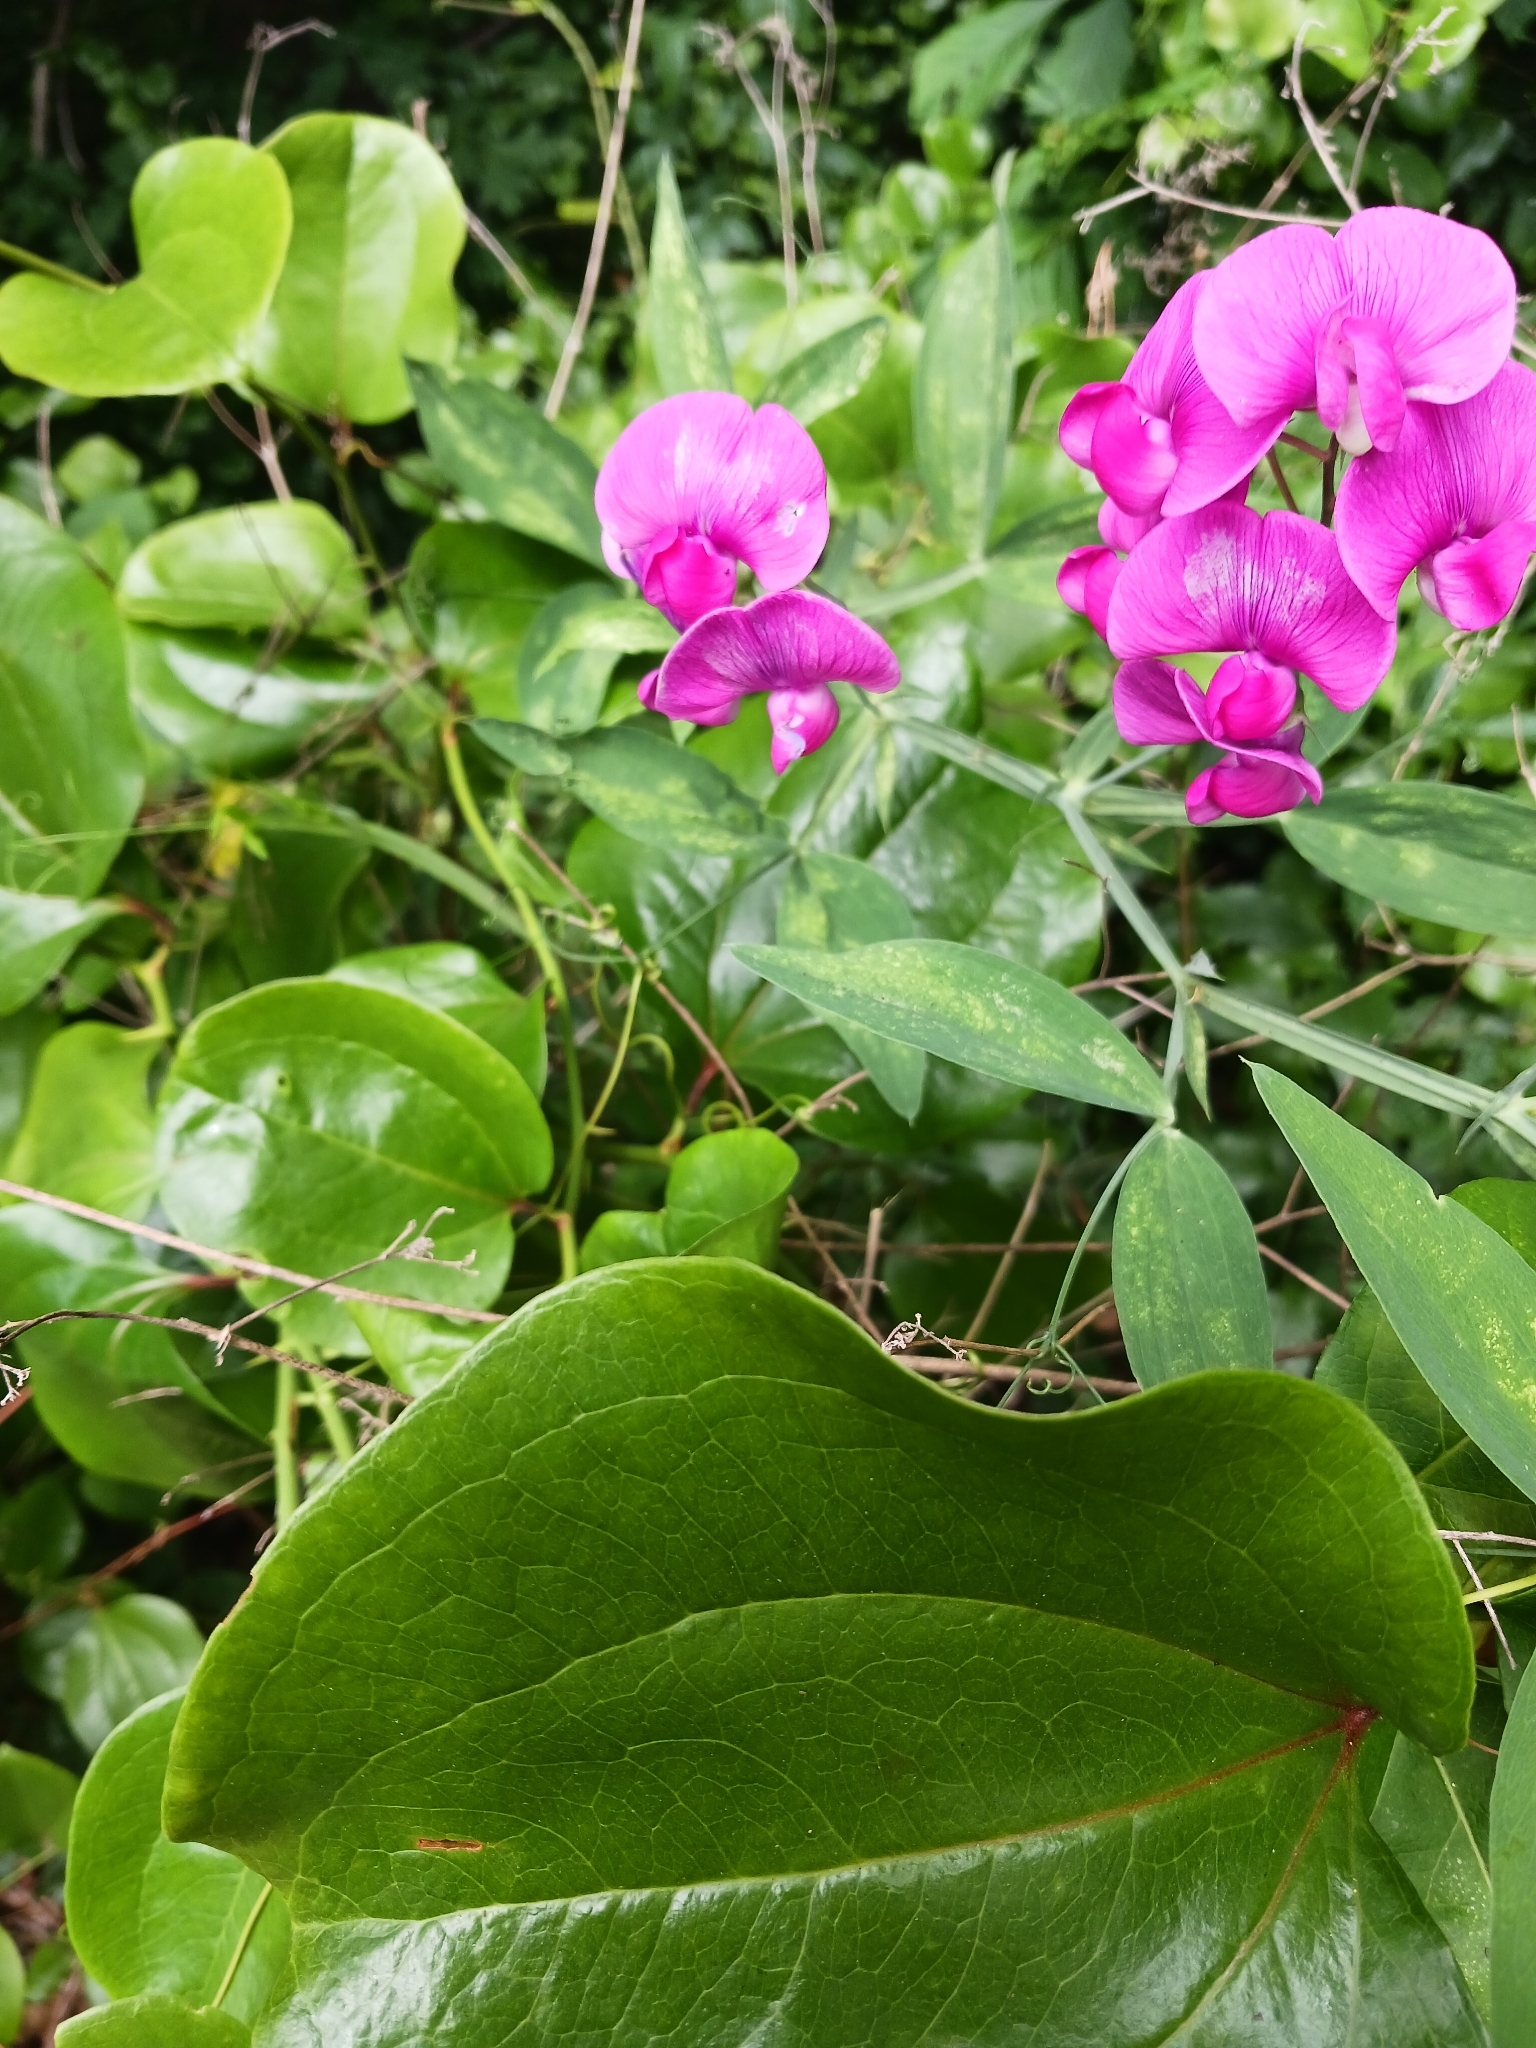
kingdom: Plantae
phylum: Tracheophyta
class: Magnoliopsida
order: Fabales
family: Fabaceae
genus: Lathyrus
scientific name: Lathyrus latifolius
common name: Perennial pea
